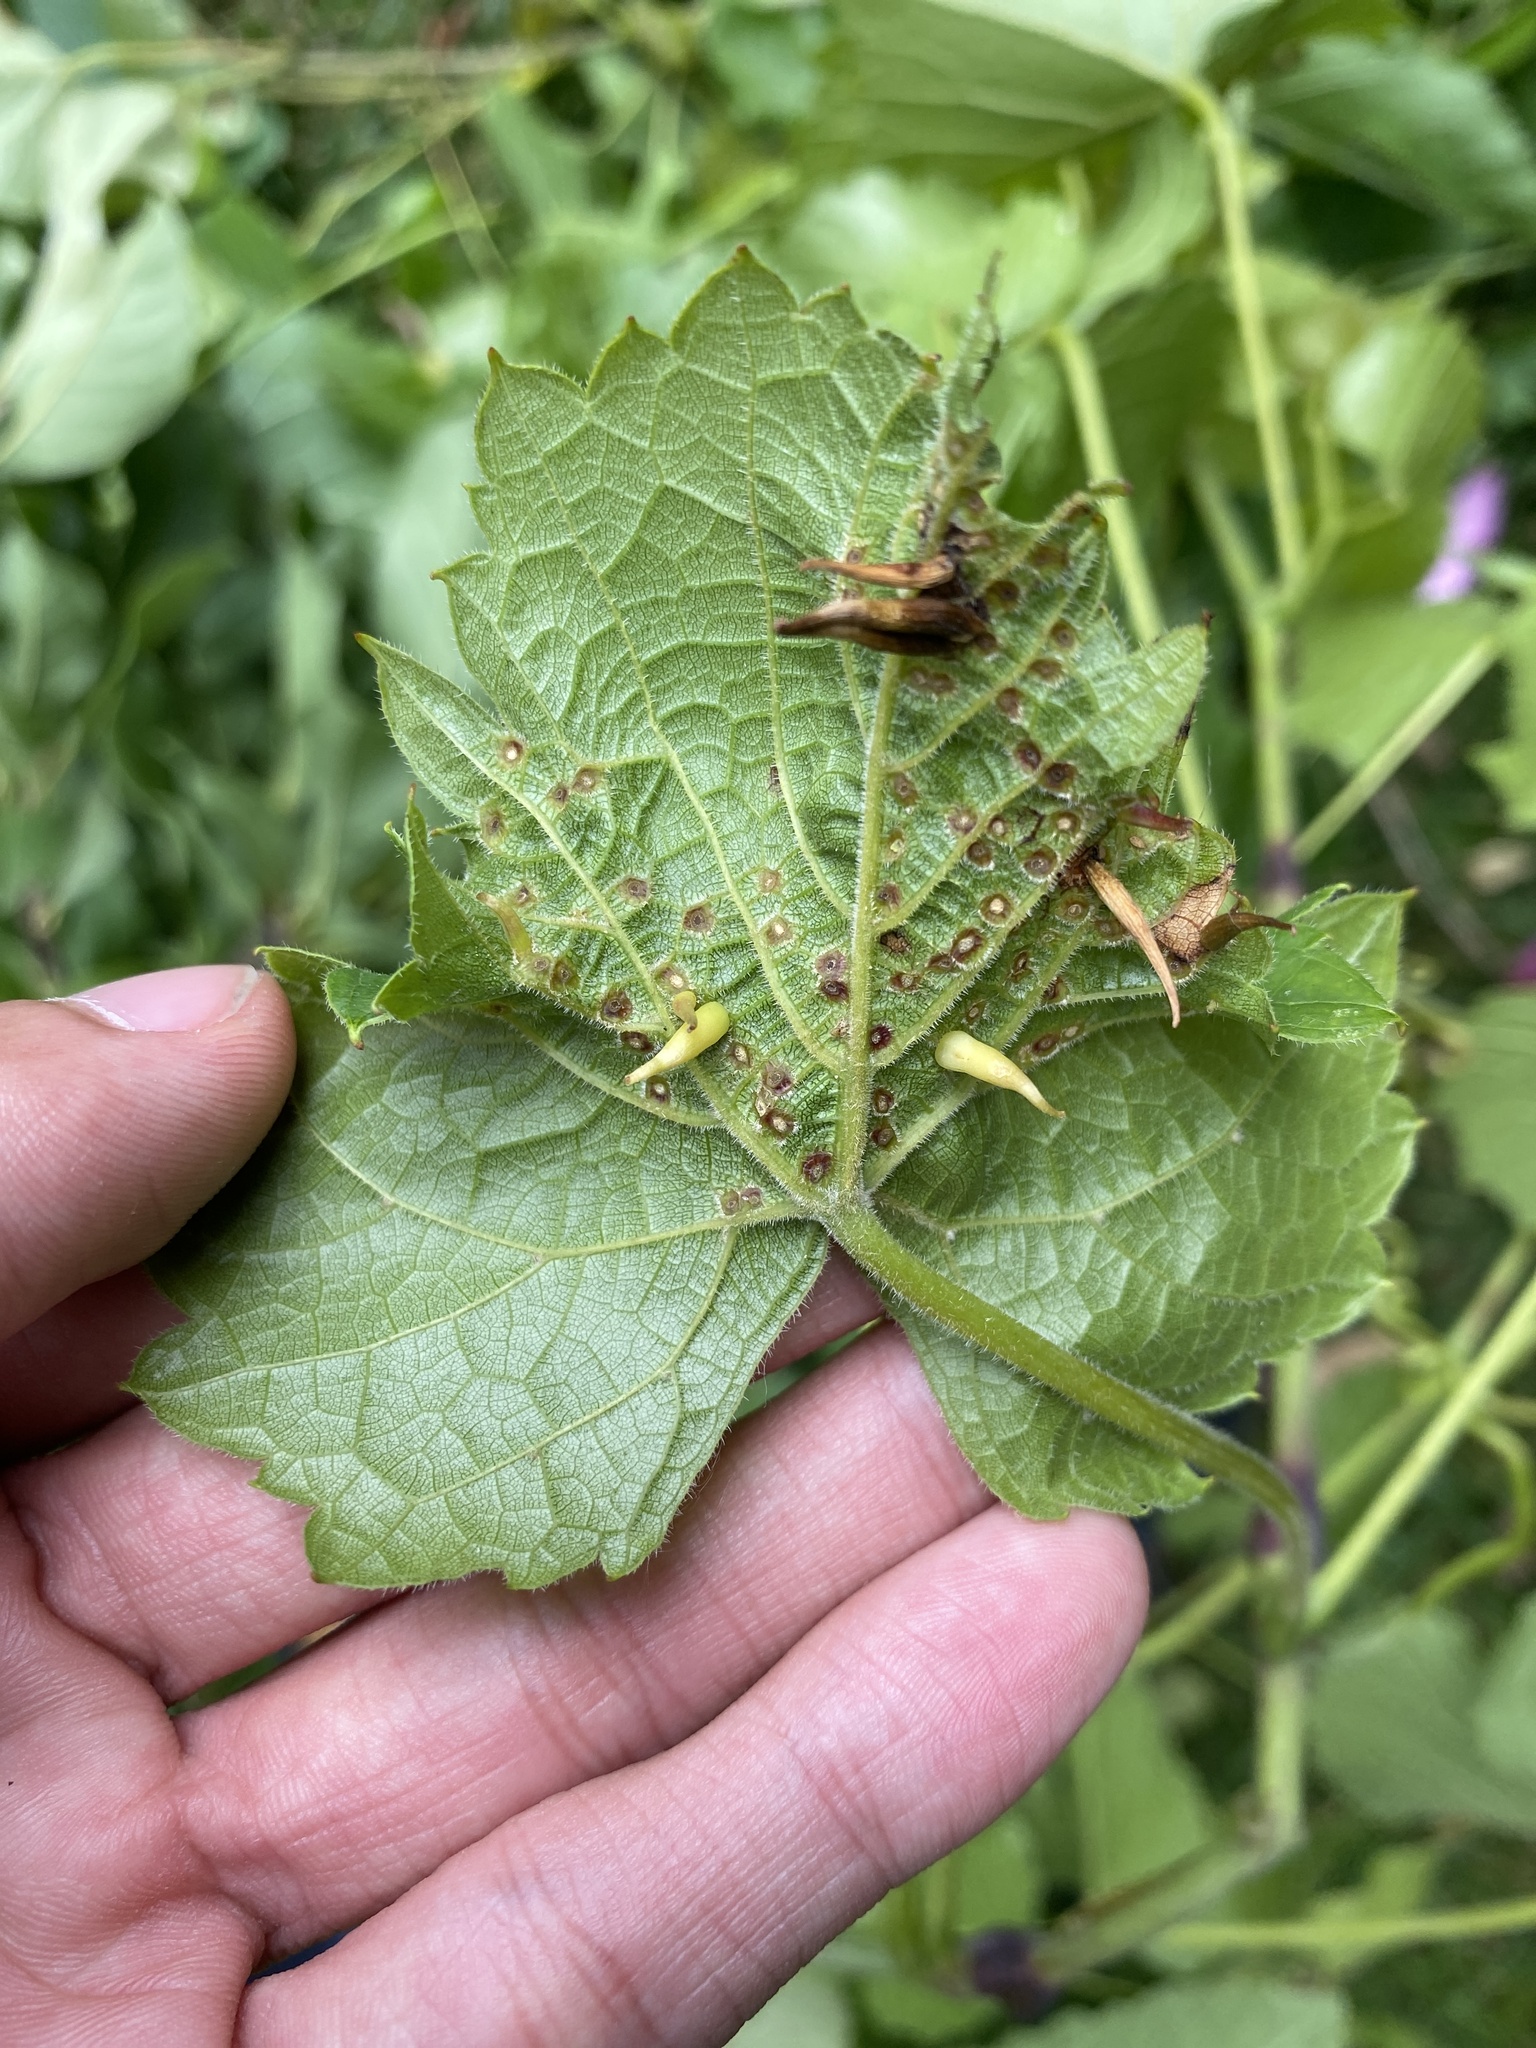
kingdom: Animalia
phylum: Arthropoda
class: Insecta
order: Diptera
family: Cecidomyiidae
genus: Ampelomyia
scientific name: Ampelomyia viticola
